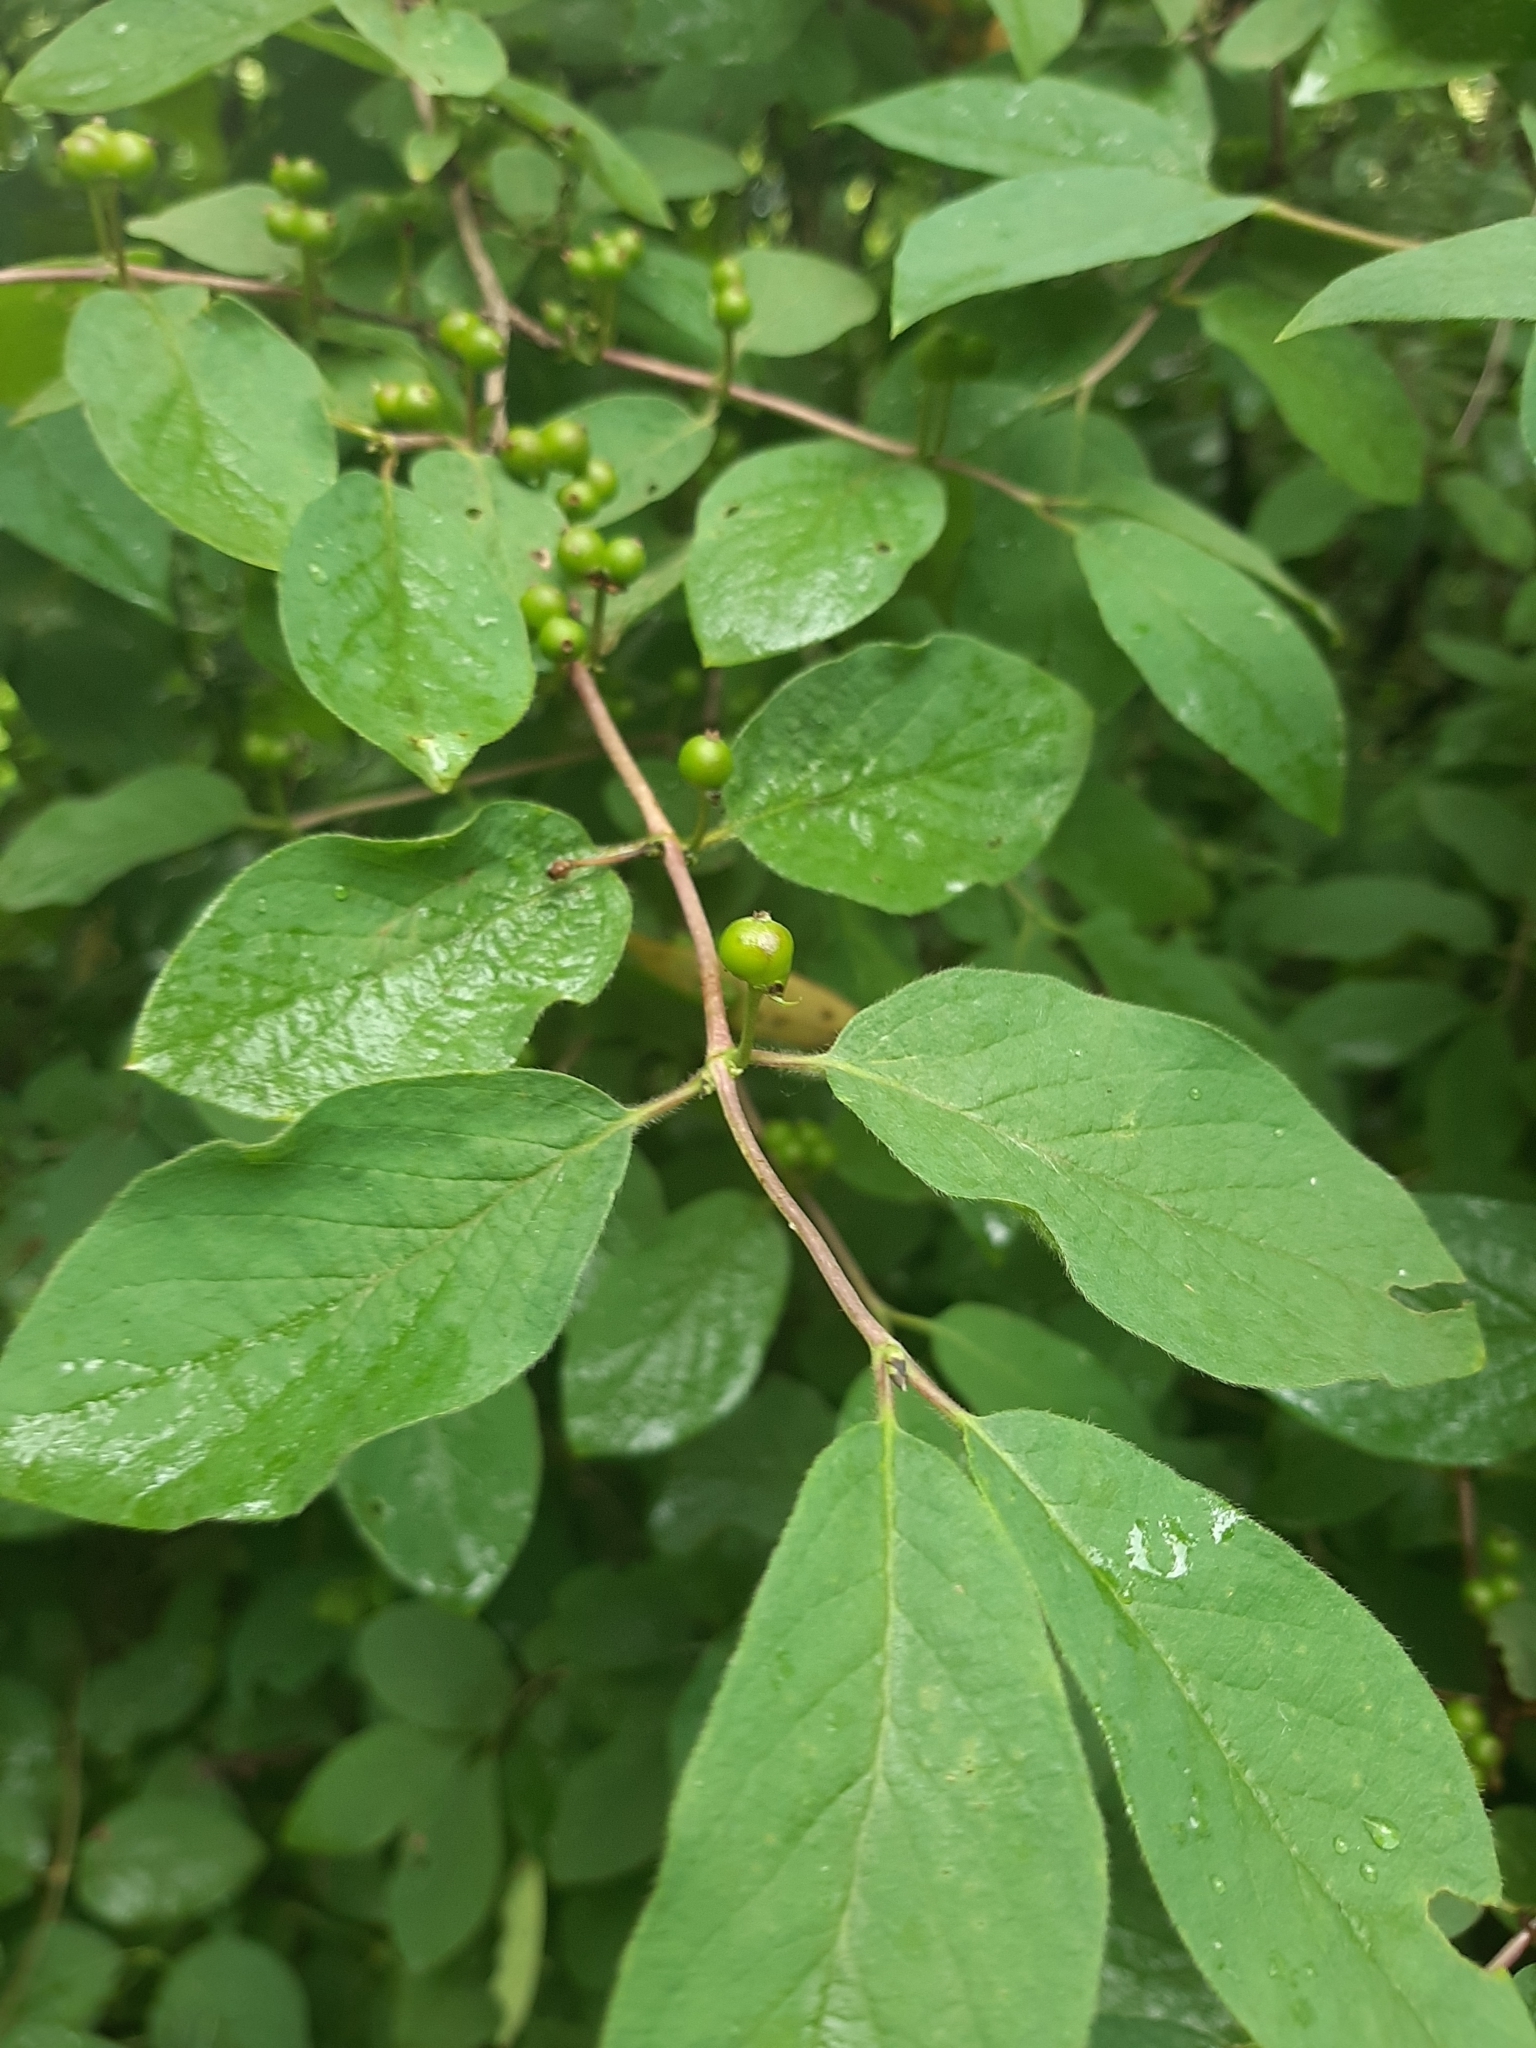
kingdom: Plantae
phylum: Tracheophyta
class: Magnoliopsida
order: Dipsacales
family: Caprifoliaceae
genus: Lonicera
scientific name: Lonicera xylosteum
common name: Fly honeysuckle
